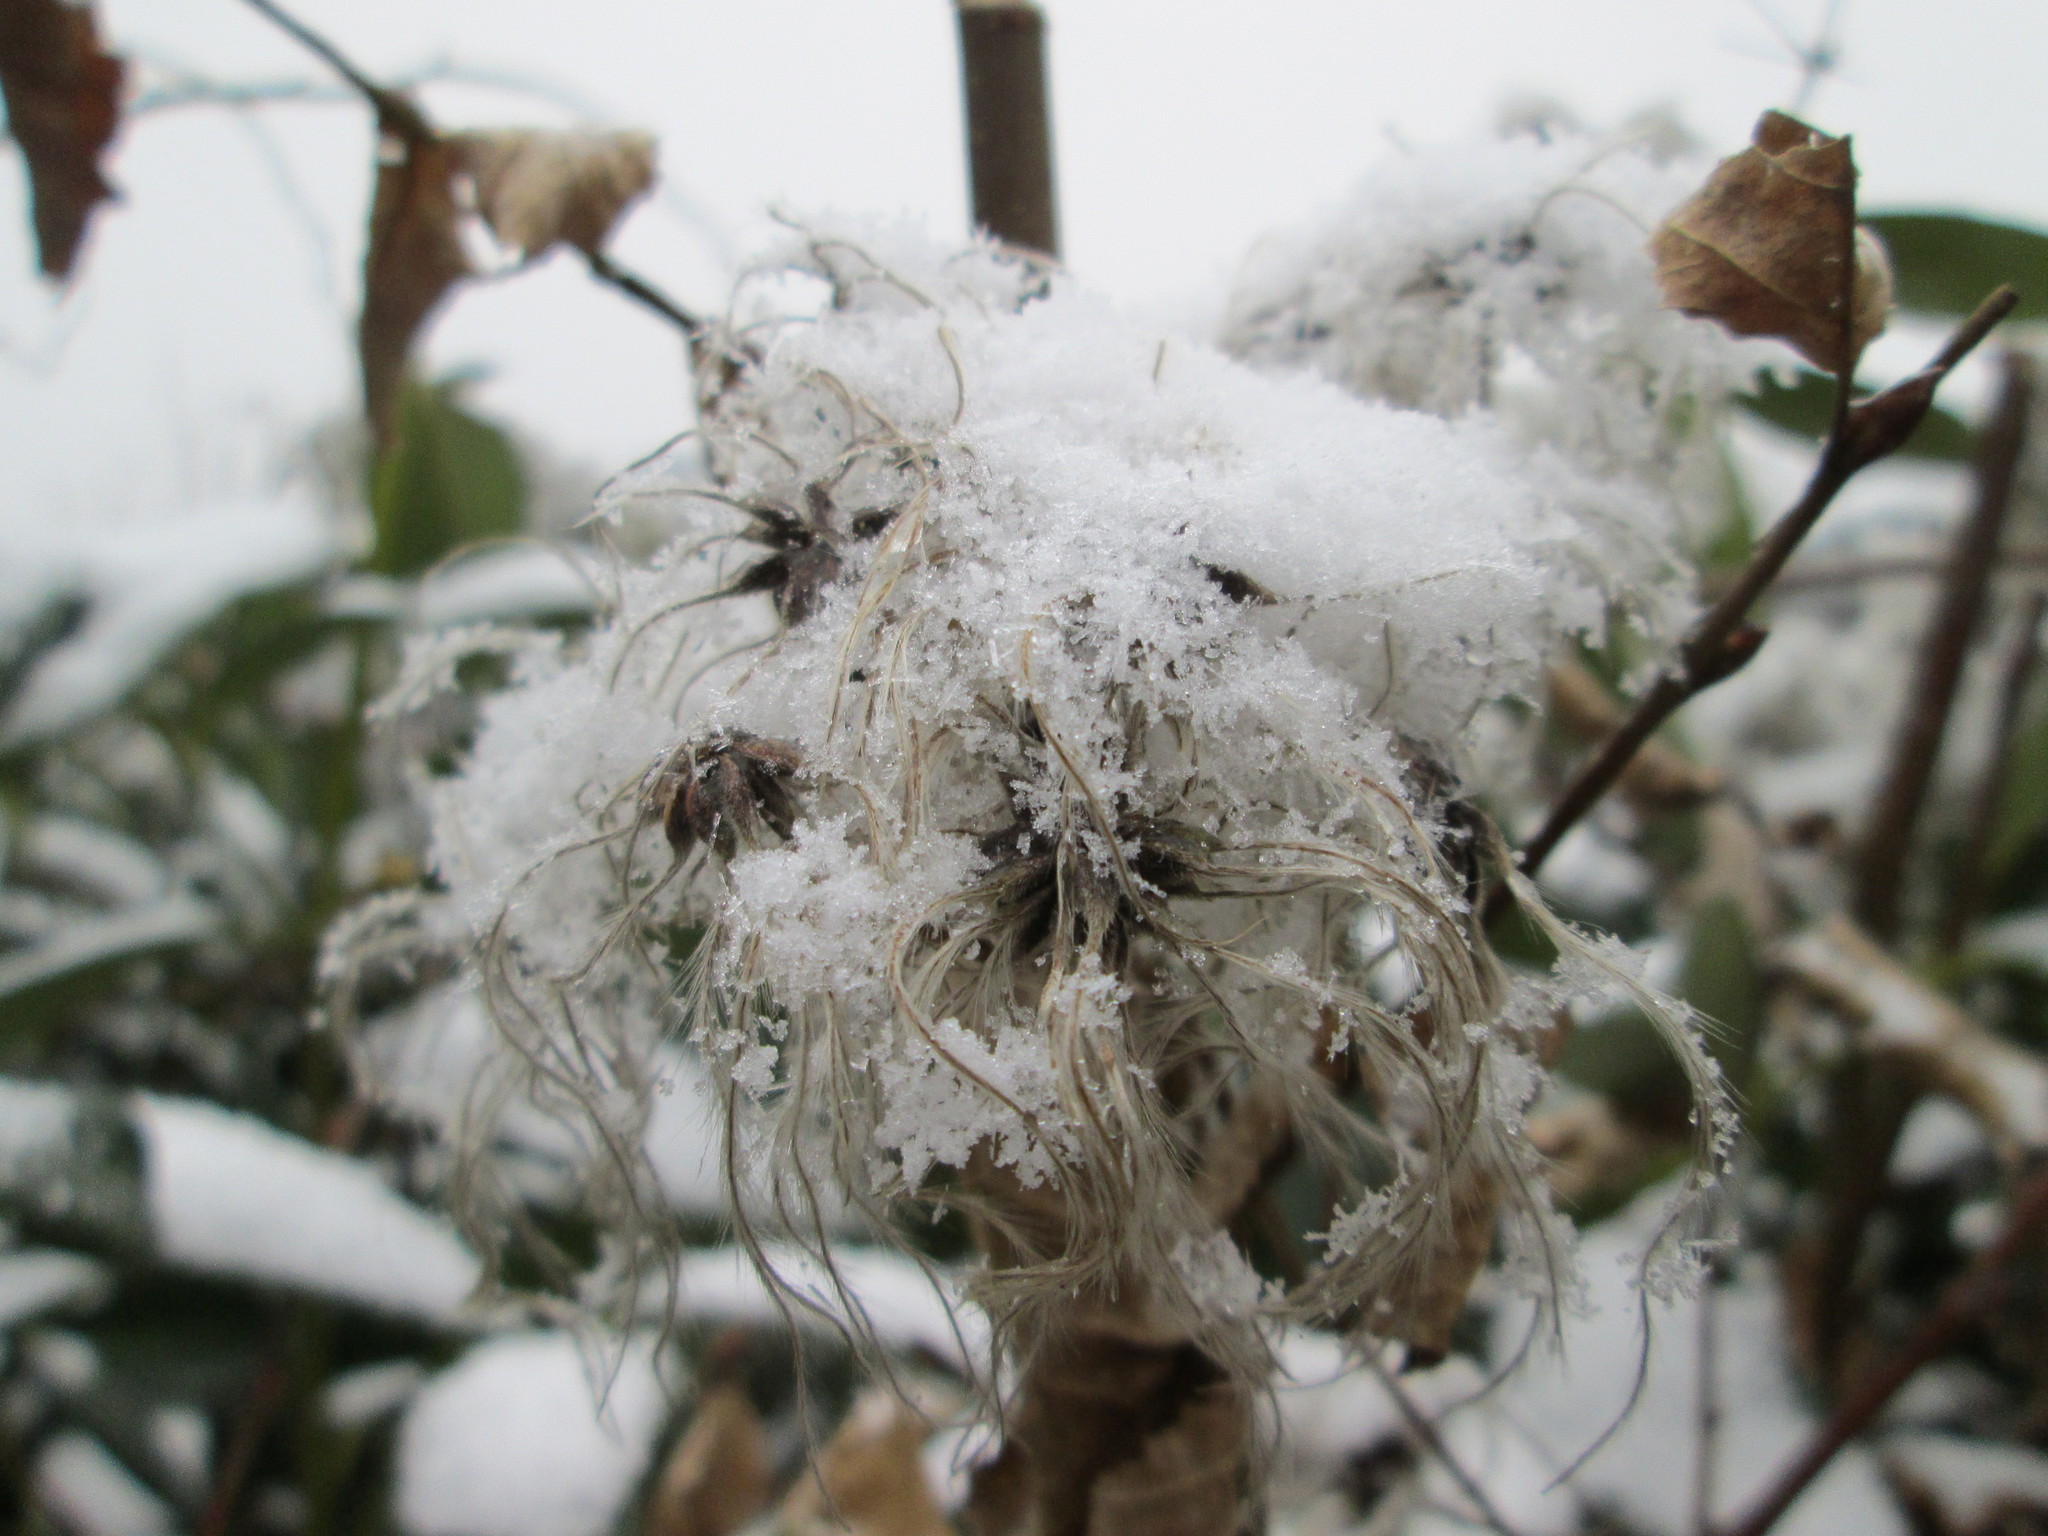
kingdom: Plantae
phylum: Tracheophyta
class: Magnoliopsida
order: Ranunculales
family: Ranunculaceae
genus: Clematis
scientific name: Clematis vitalba
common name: Evergreen clematis
